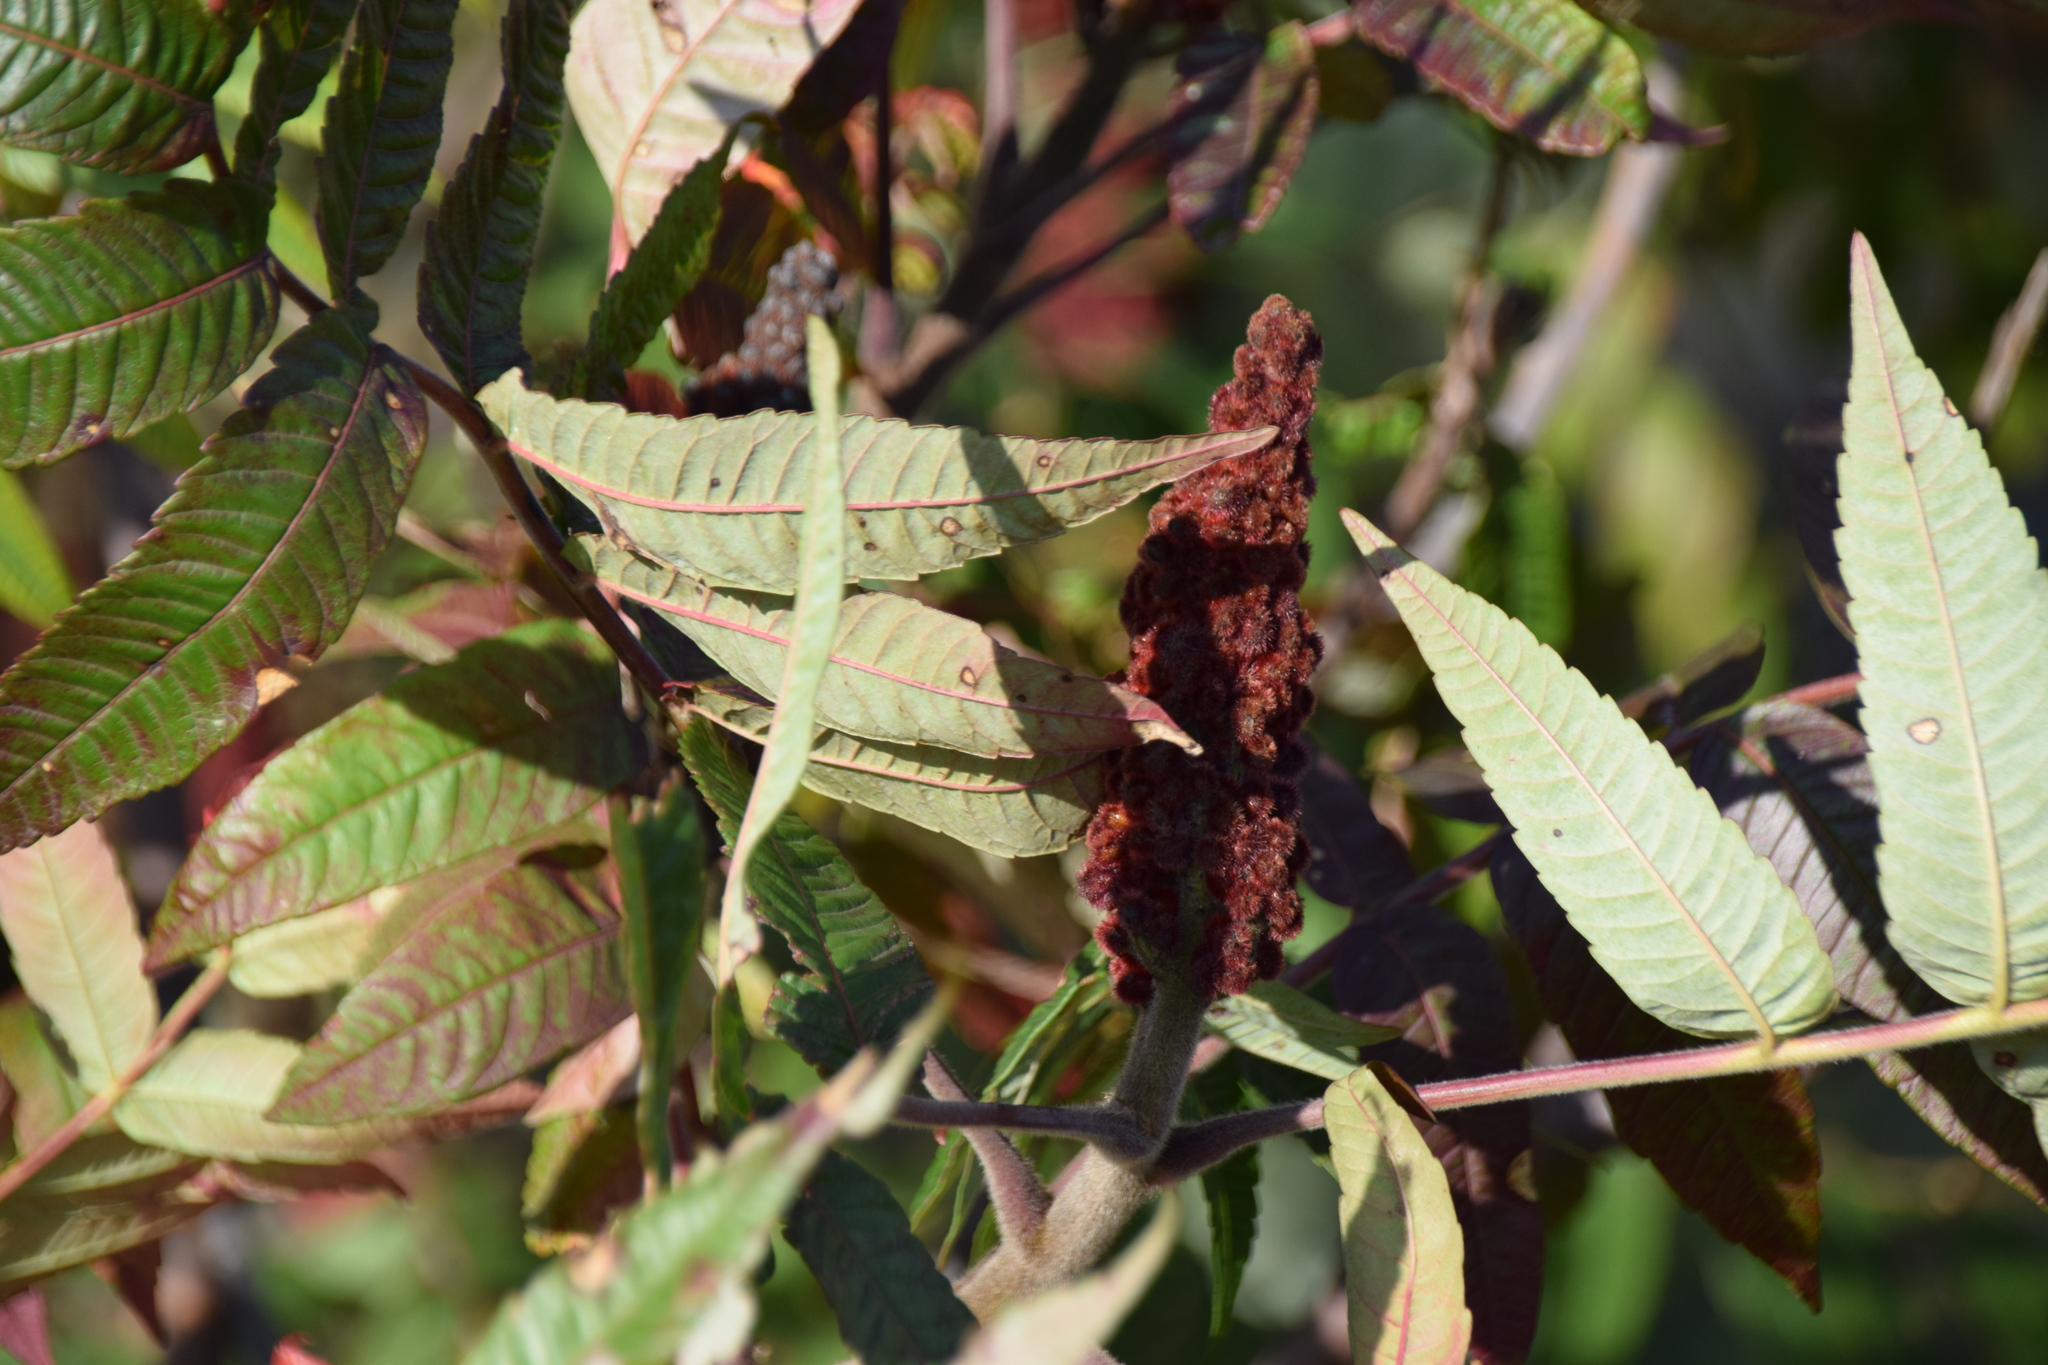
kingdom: Plantae
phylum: Tracheophyta
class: Magnoliopsida
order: Sapindales
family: Anacardiaceae
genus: Rhus
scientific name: Rhus typhina
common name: Staghorn sumac
